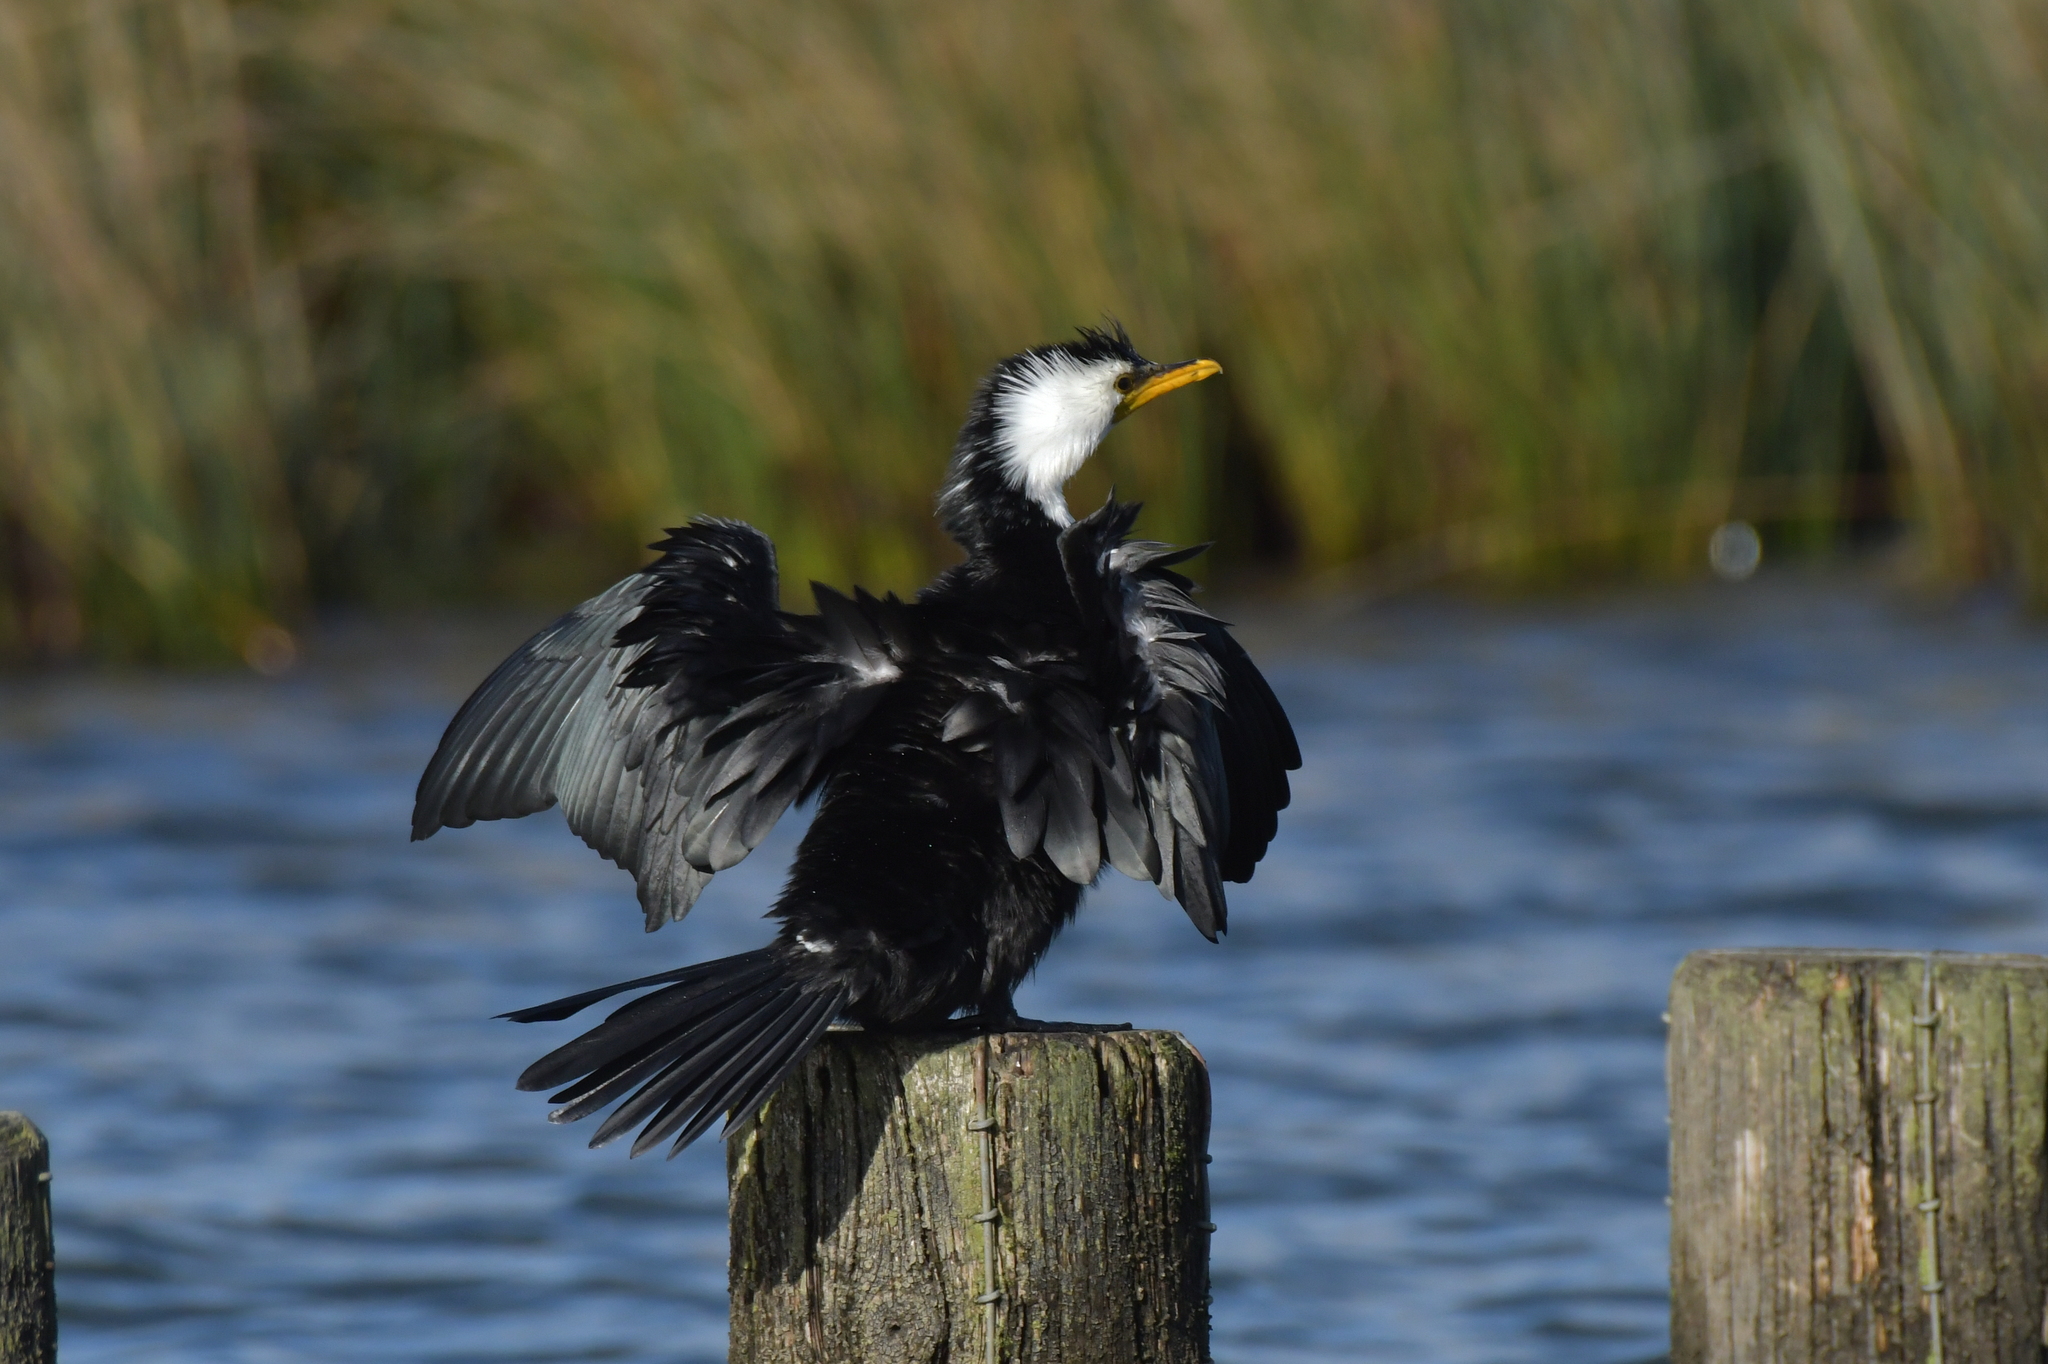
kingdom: Animalia
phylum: Chordata
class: Aves
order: Suliformes
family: Phalacrocoracidae
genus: Microcarbo
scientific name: Microcarbo melanoleucos
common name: Little pied cormorant
